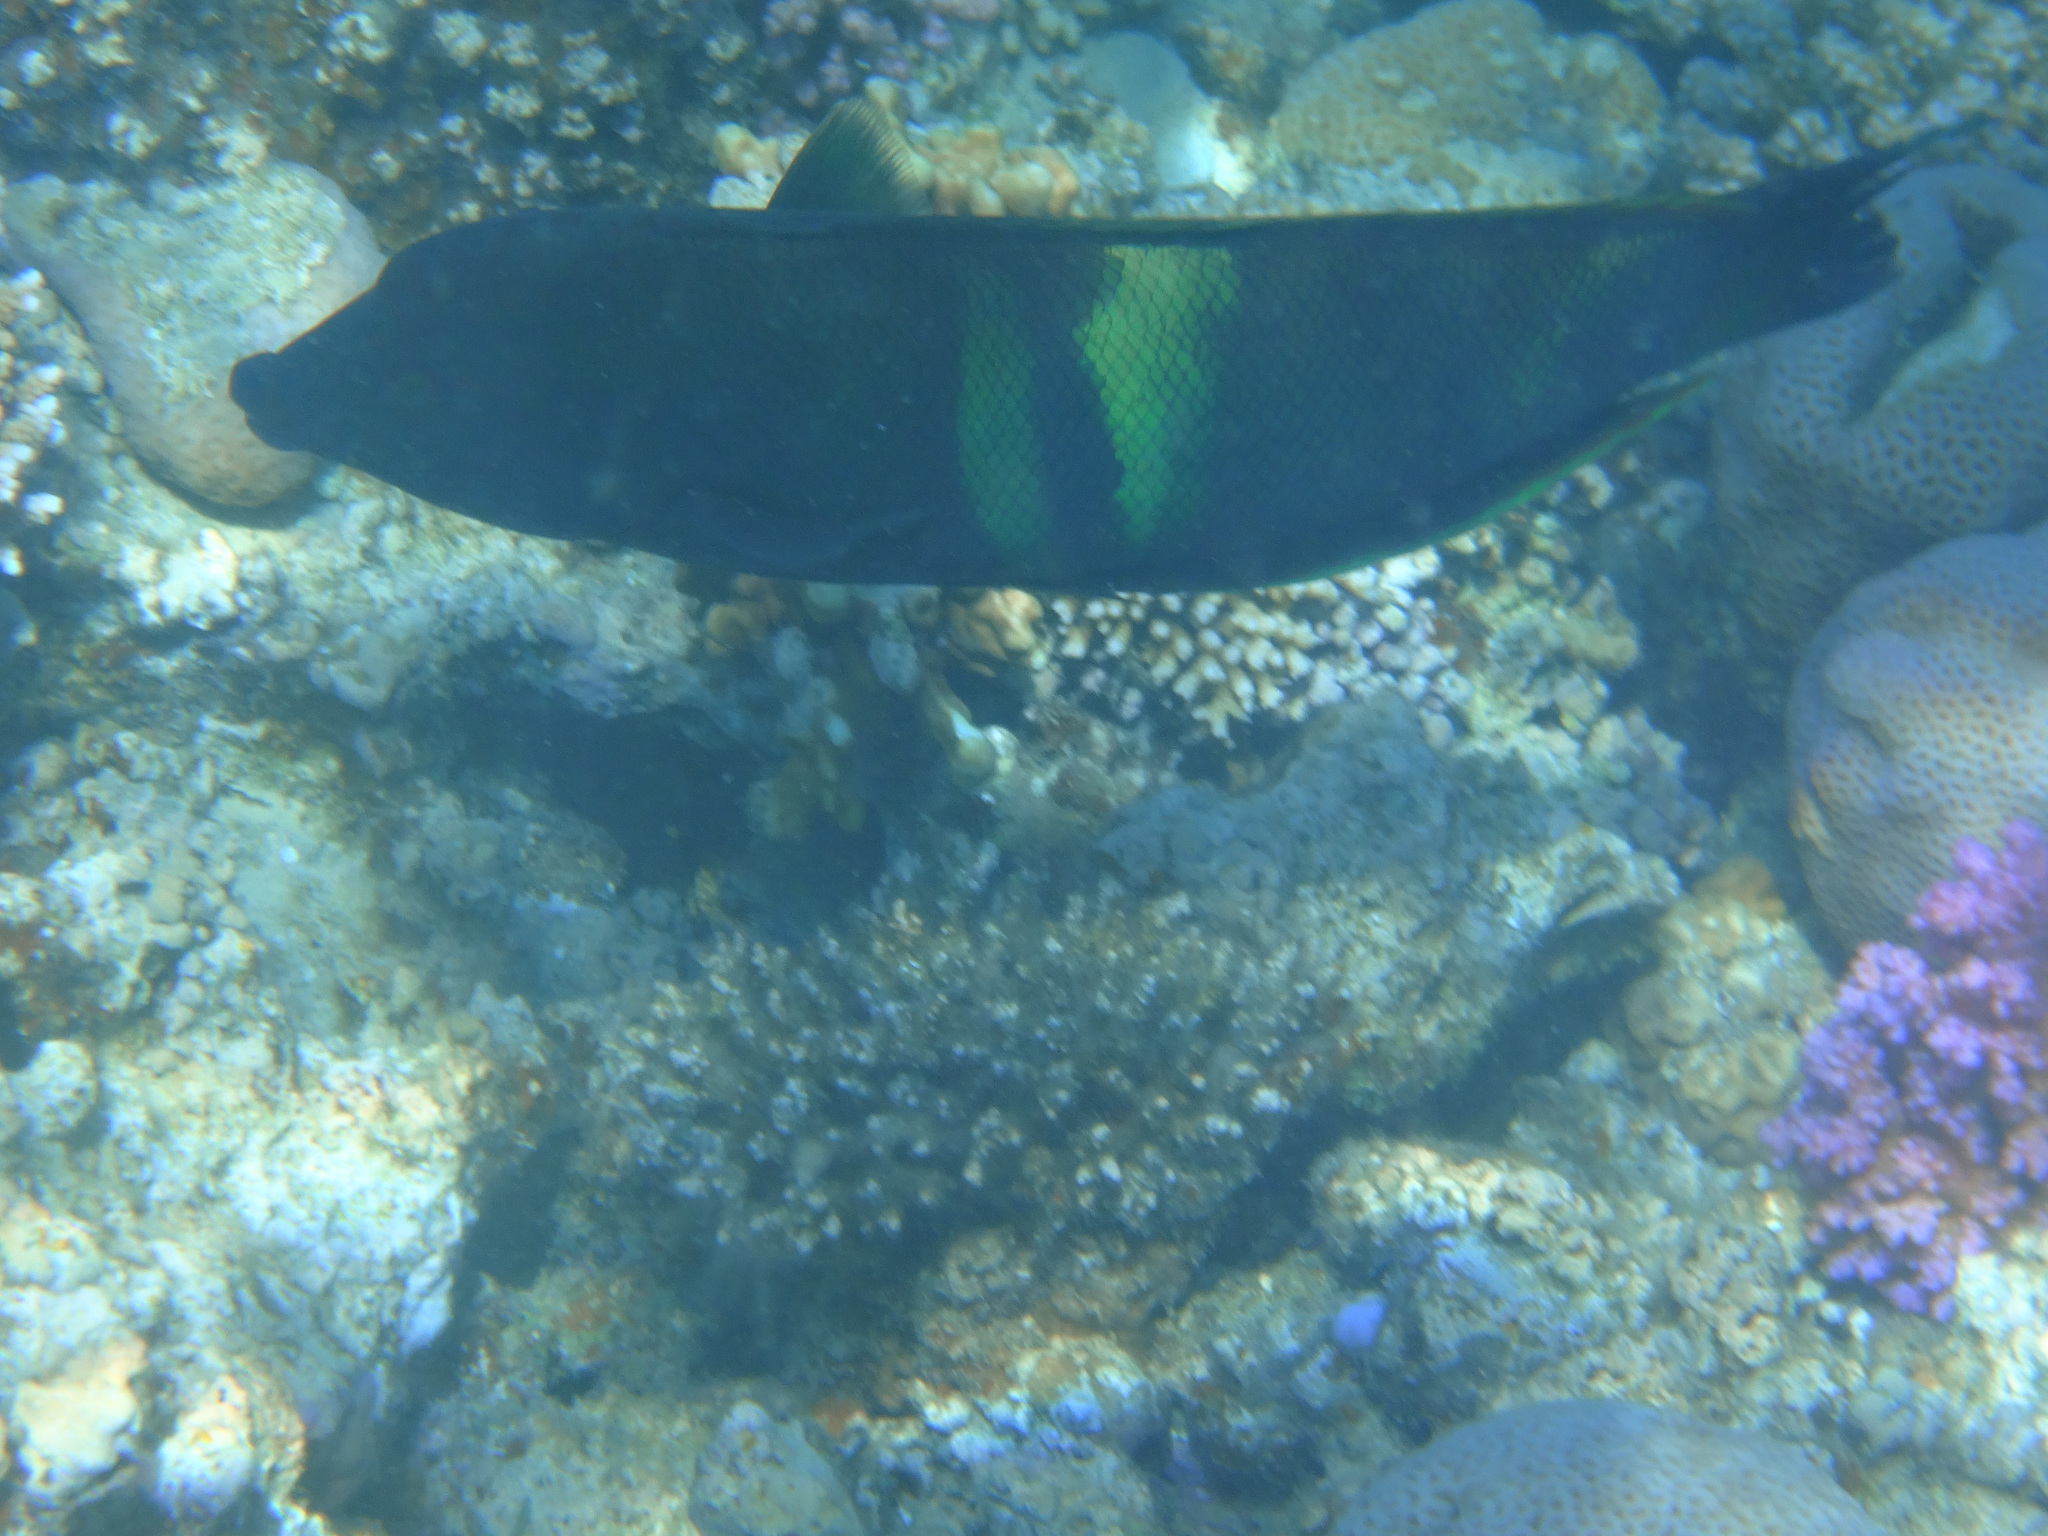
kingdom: Animalia
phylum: Chordata
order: Perciformes
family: Labridae
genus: Coris
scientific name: Coris aygula
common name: Clown coris
